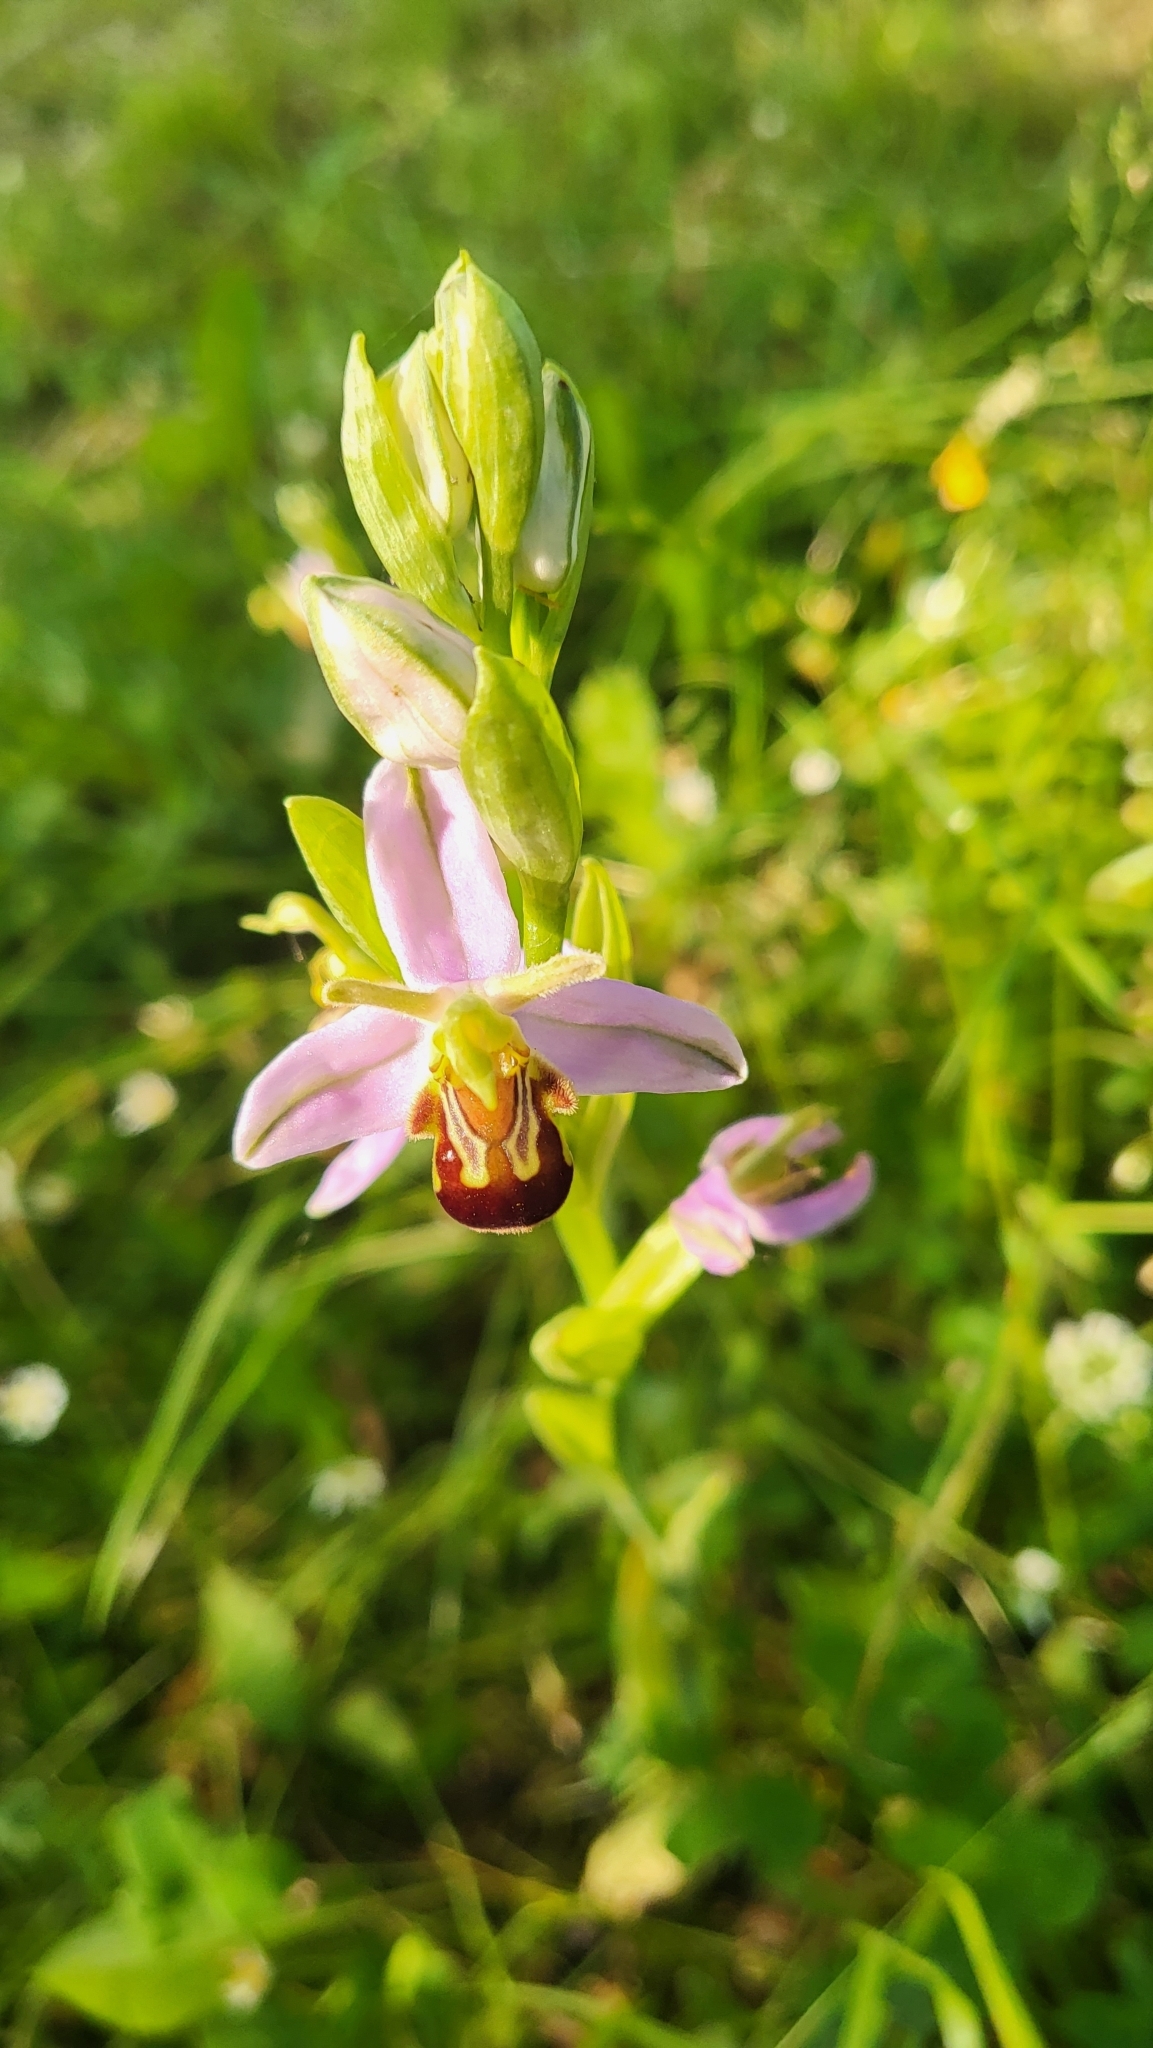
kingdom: Plantae
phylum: Tracheophyta
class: Liliopsida
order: Asparagales
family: Orchidaceae
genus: Ophrys
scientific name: Ophrys apifera
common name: Bee orchid
